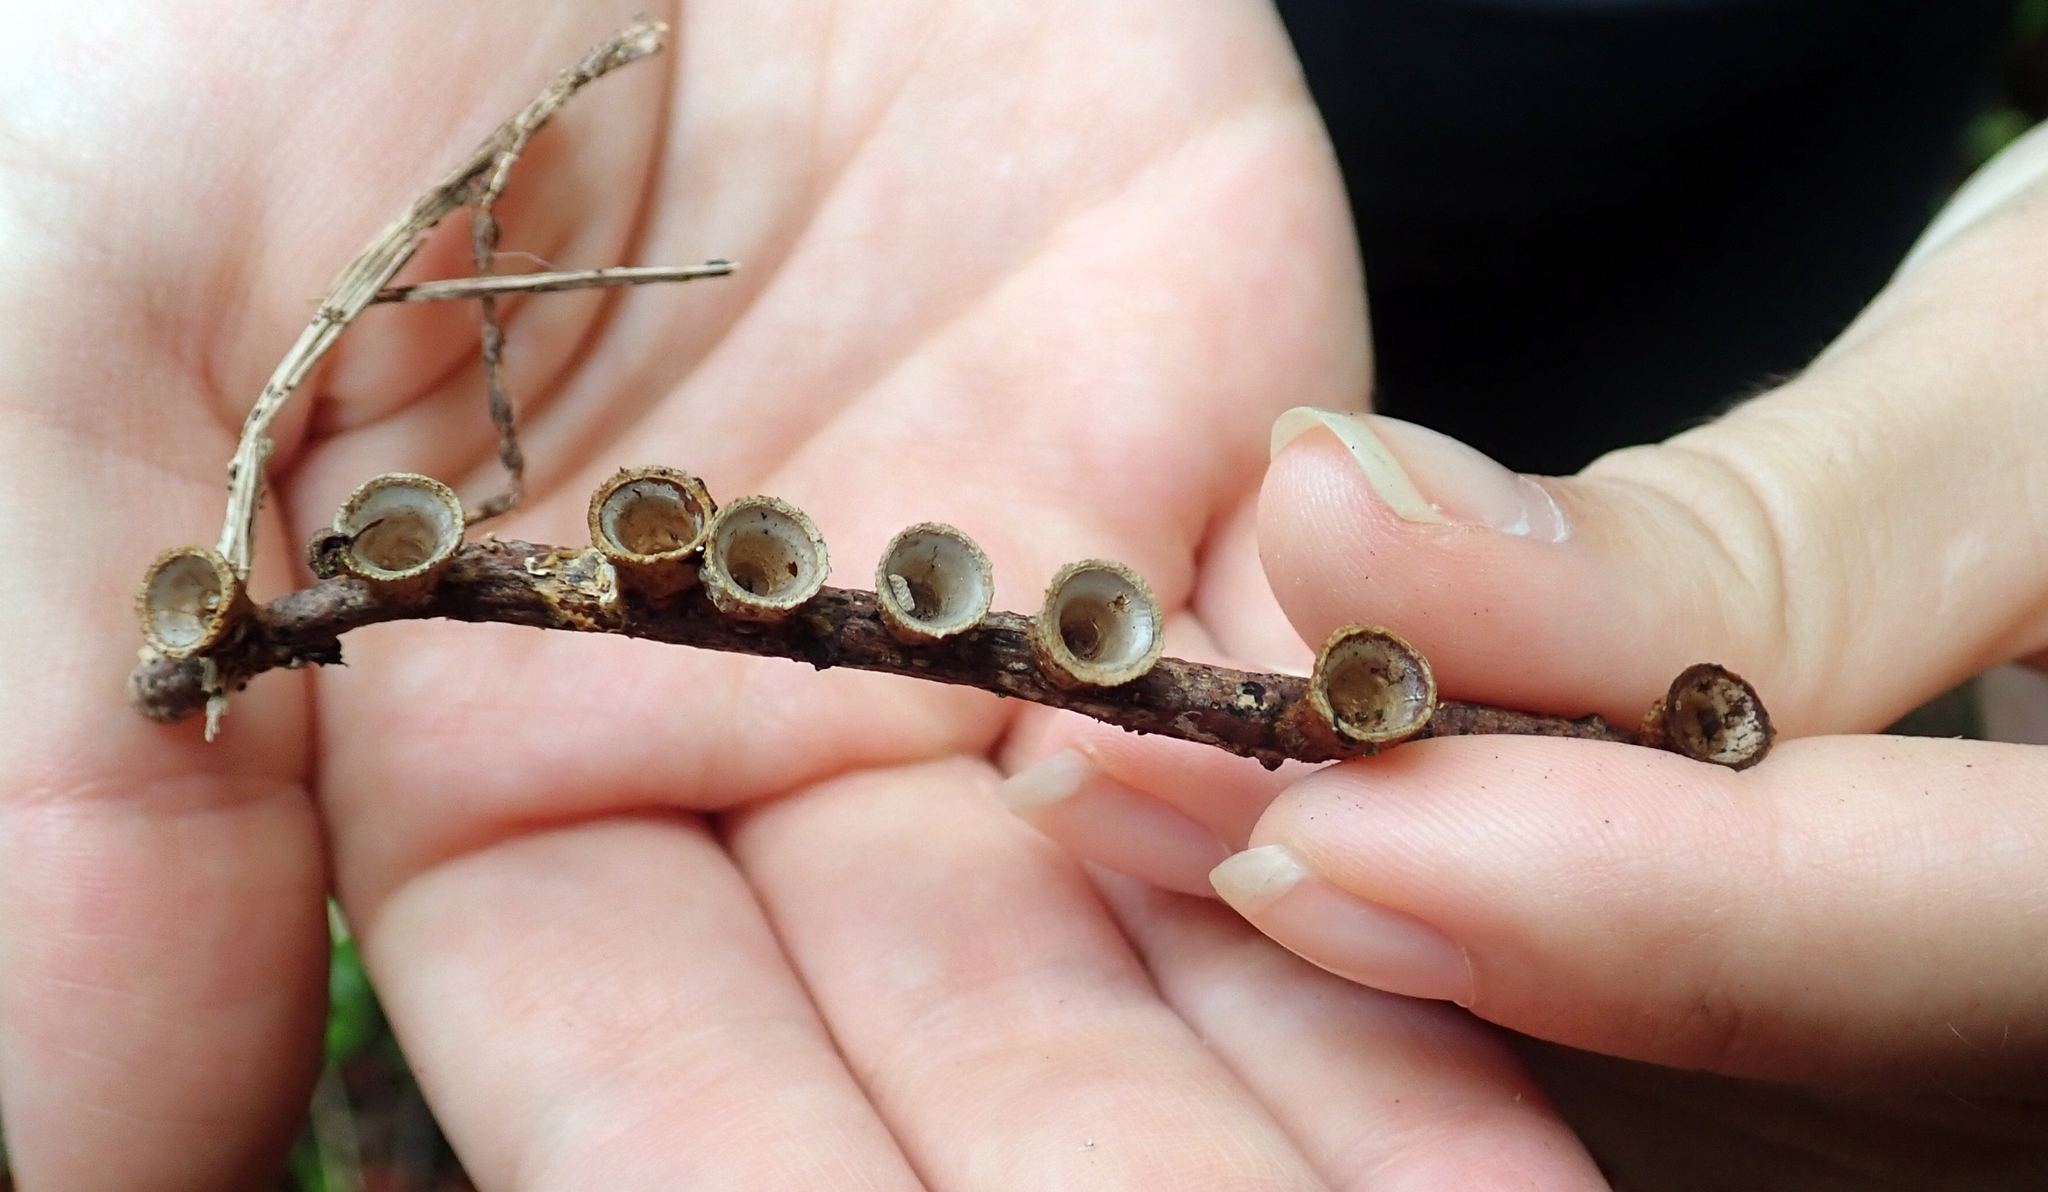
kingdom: Fungi
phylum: Basidiomycota
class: Agaricomycetes
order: Agaricales
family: Nidulariaceae
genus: Crucibulum
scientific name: Crucibulum simile
